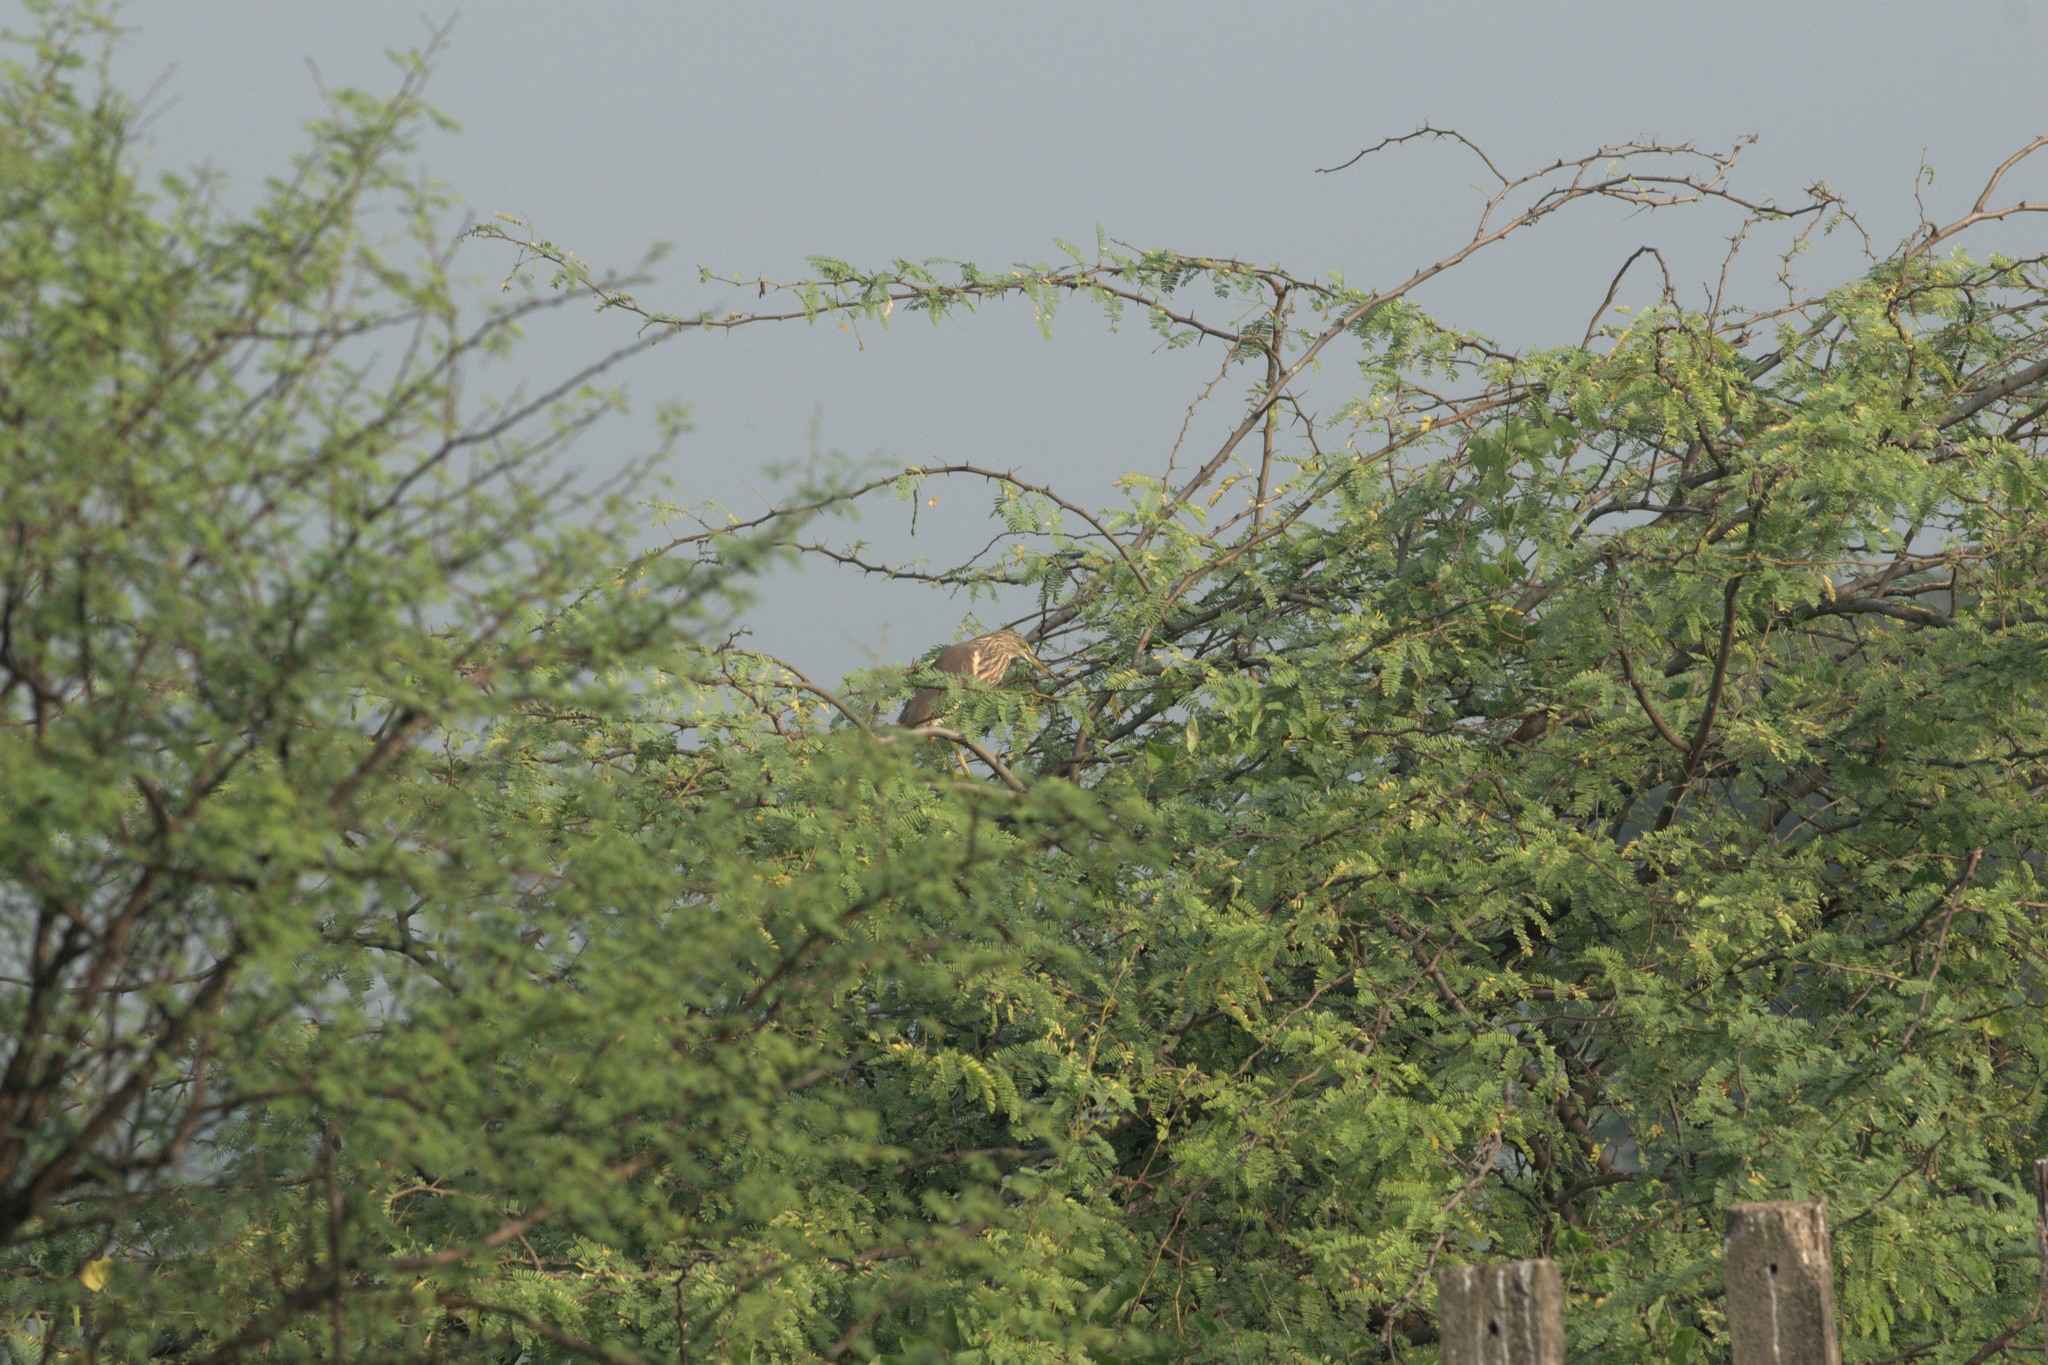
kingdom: Animalia
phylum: Chordata
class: Aves
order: Pelecaniformes
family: Ardeidae
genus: Ardeola
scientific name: Ardeola grayii
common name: Indian pond heron
